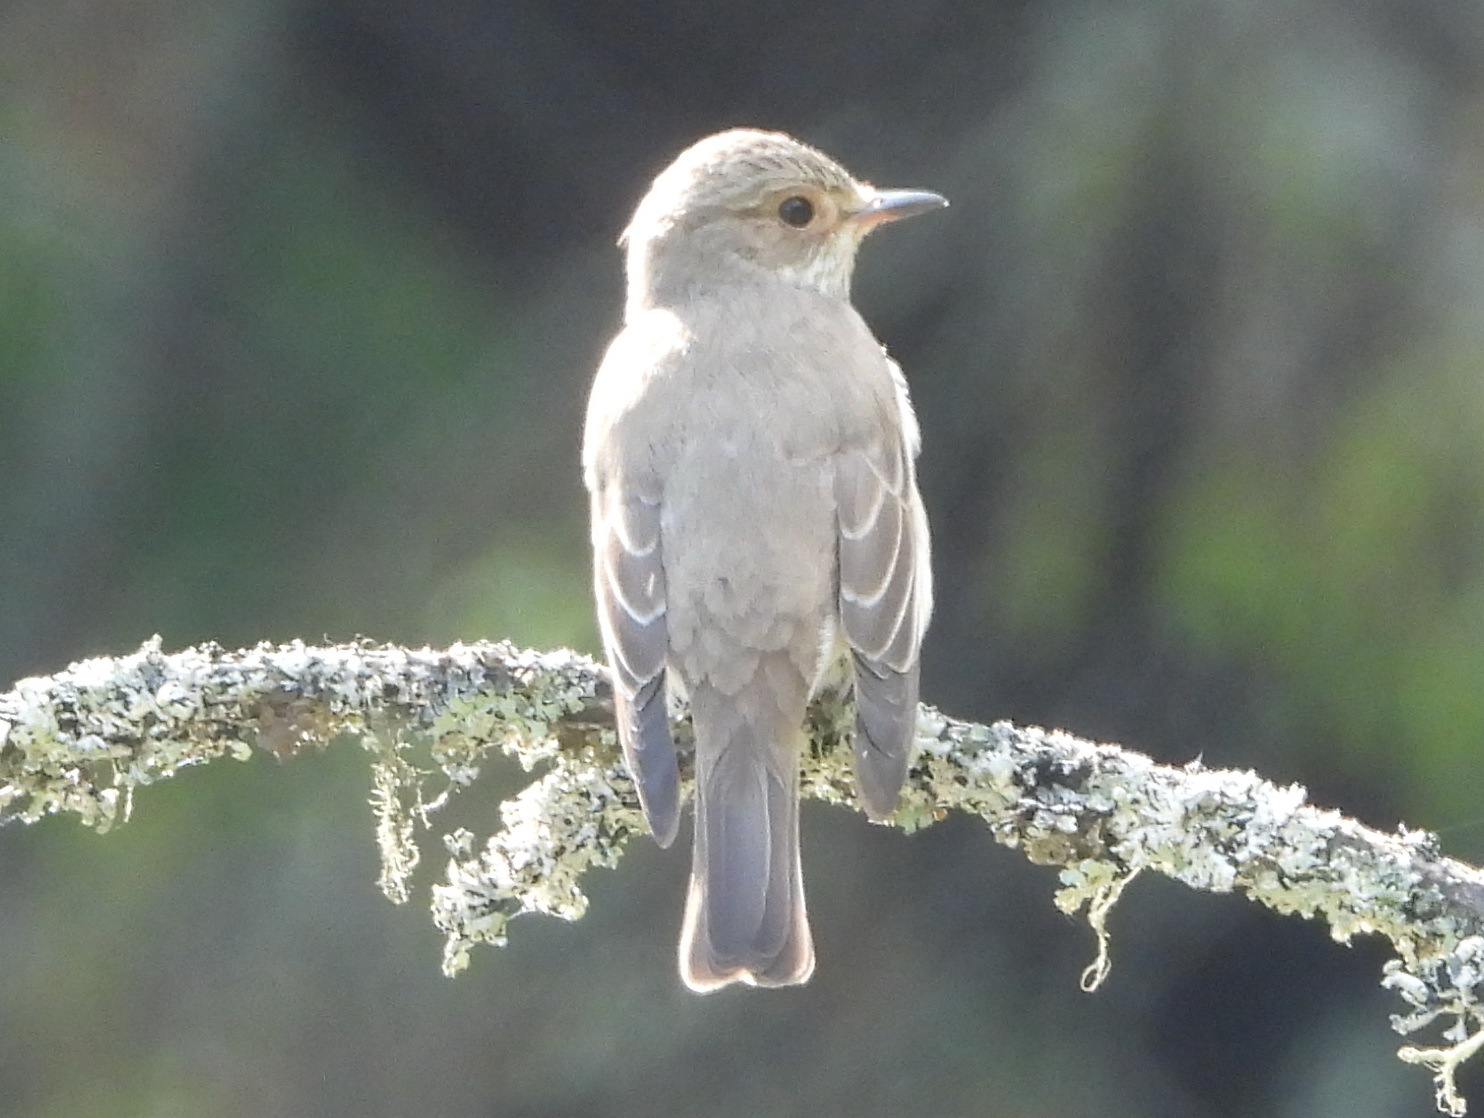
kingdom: Animalia
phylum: Chordata
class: Aves
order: Passeriformes
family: Muscicapidae
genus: Muscicapa
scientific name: Muscicapa striata
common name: Spotted flycatcher
